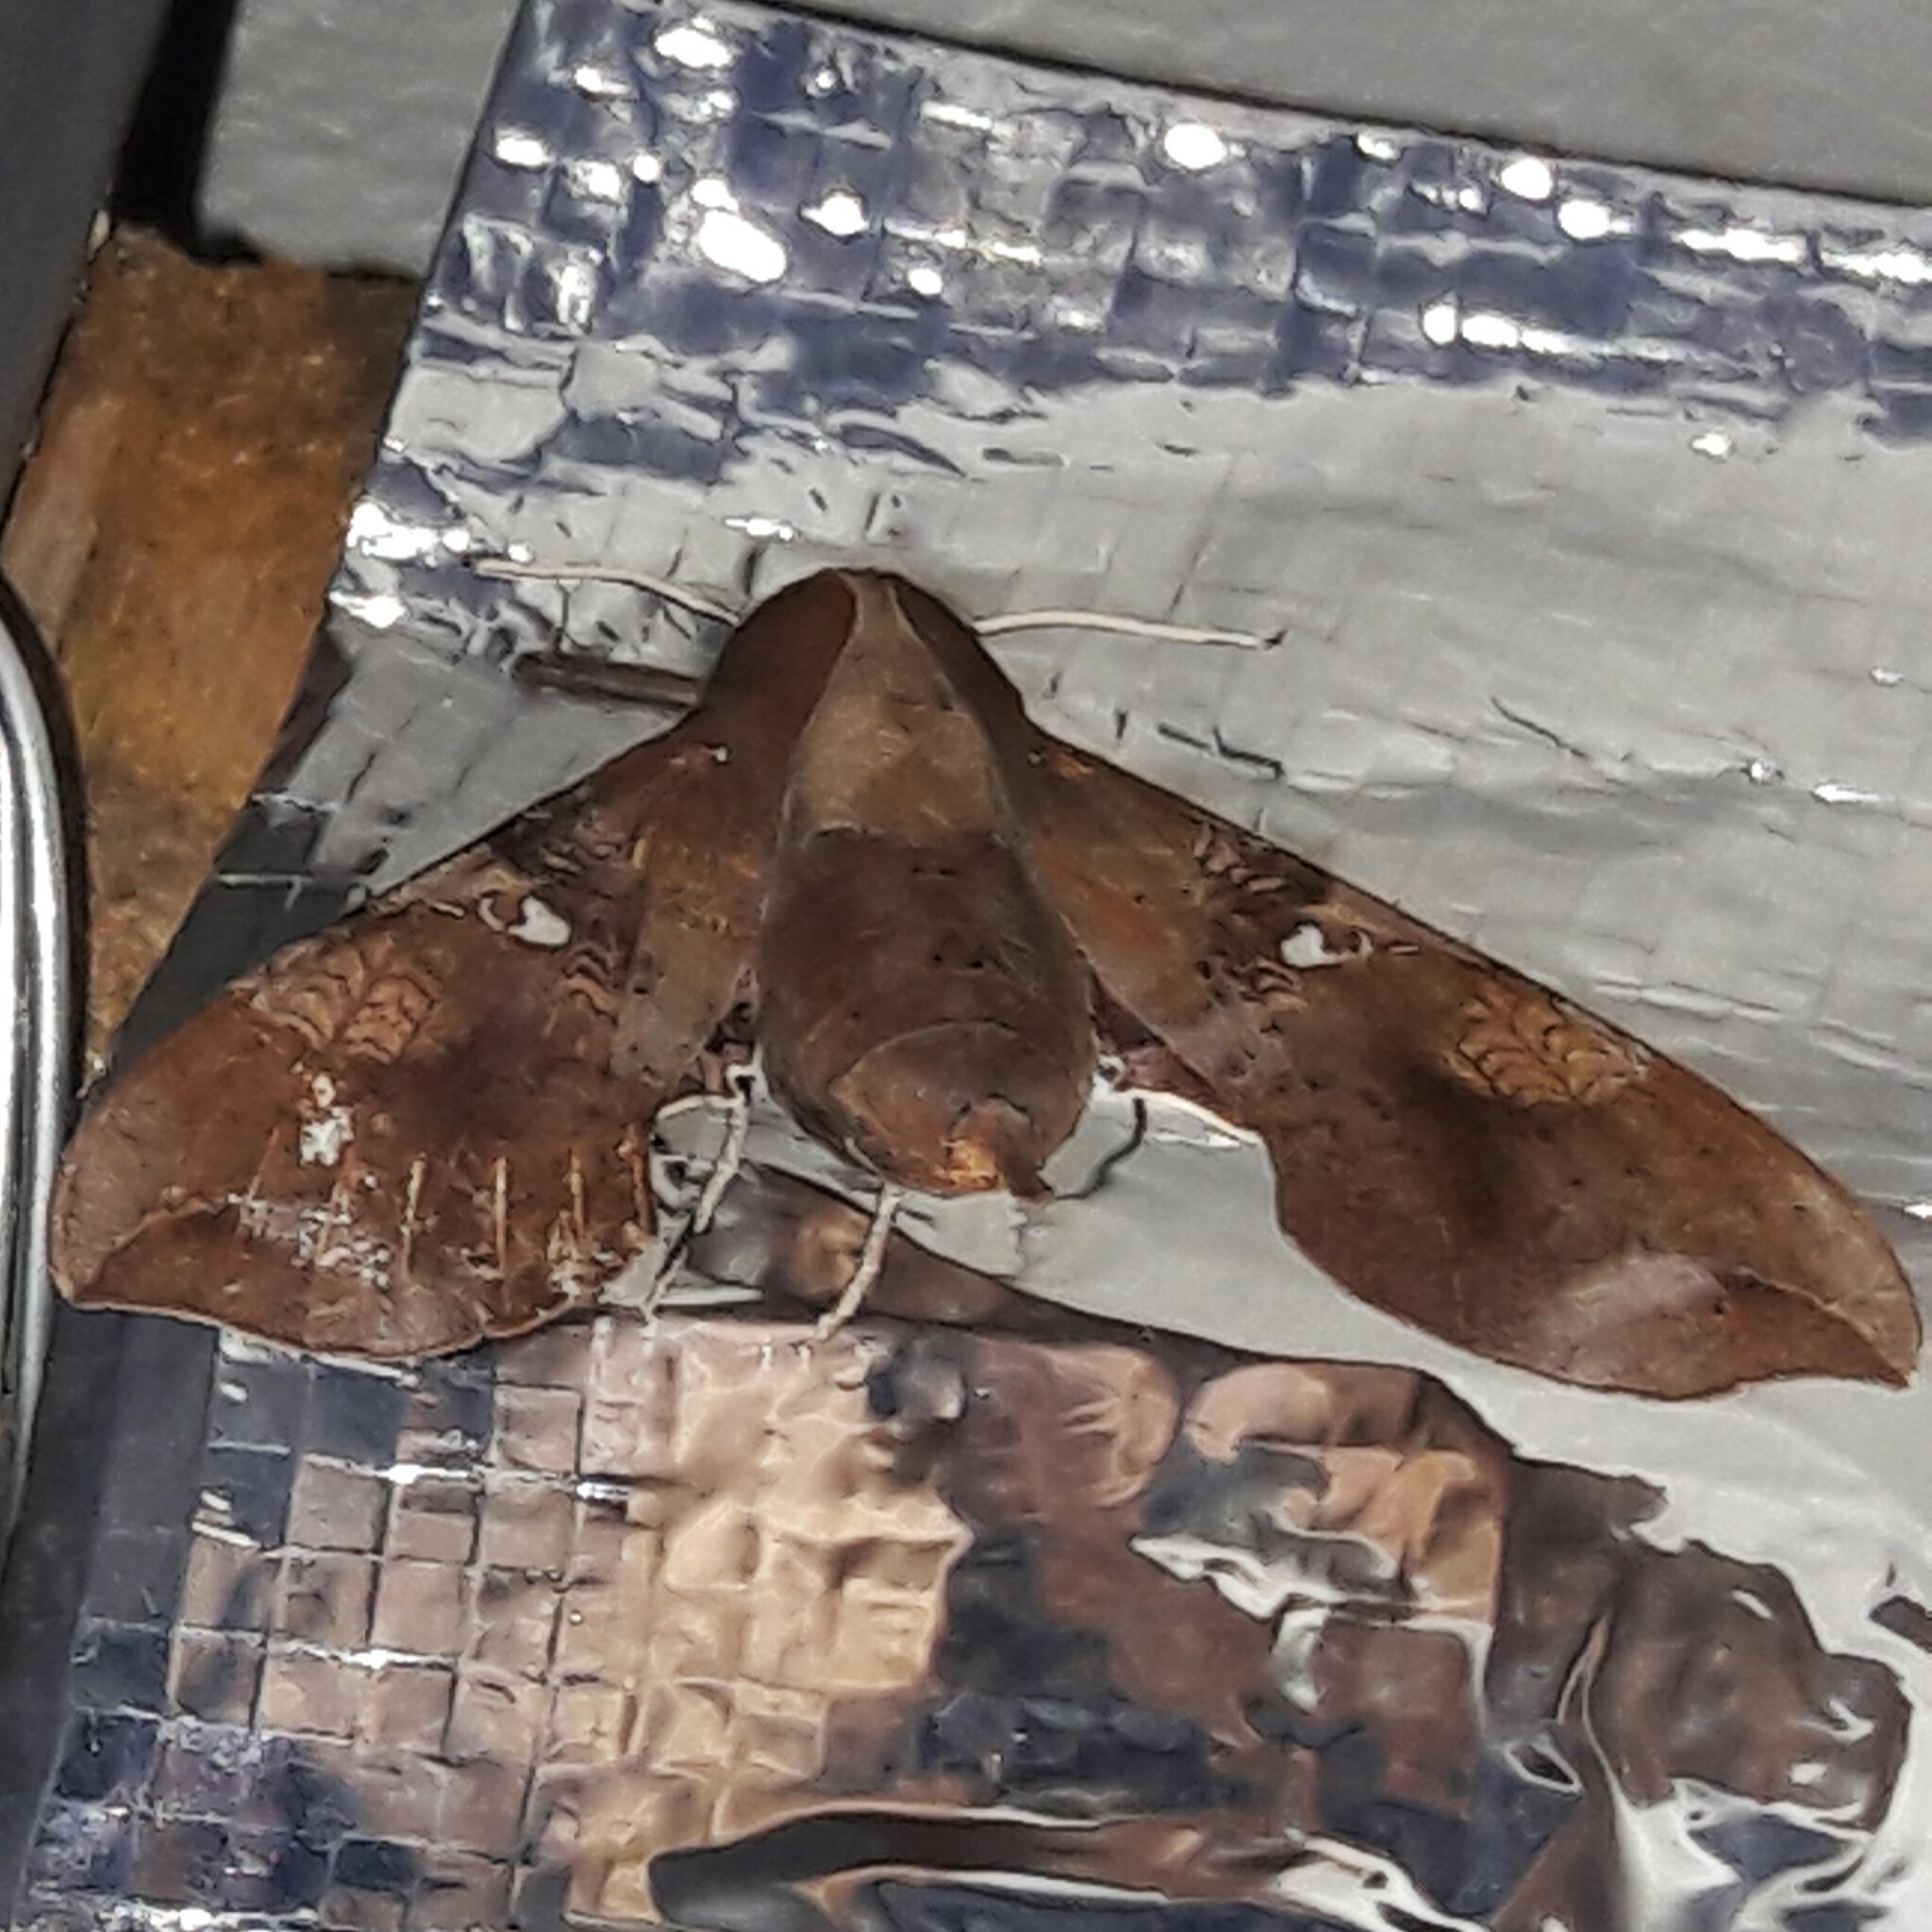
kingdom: Animalia
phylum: Arthropoda
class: Insecta
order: Lepidoptera
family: Sphingidae
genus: Callionima
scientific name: Callionima falcifera
